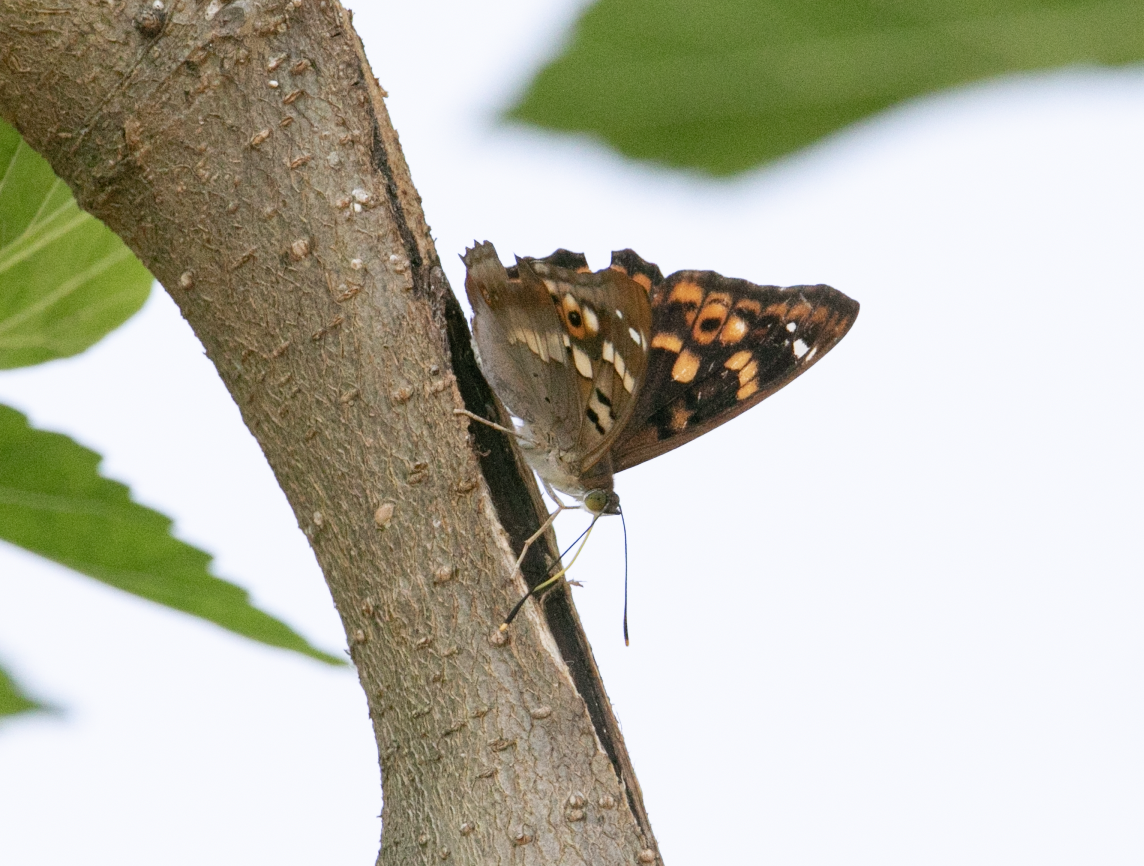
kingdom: Animalia
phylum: Arthropoda
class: Insecta
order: Lepidoptera
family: Nymphalidae
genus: Apatura
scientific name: Apatura ilia
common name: Lesser purple emperor
